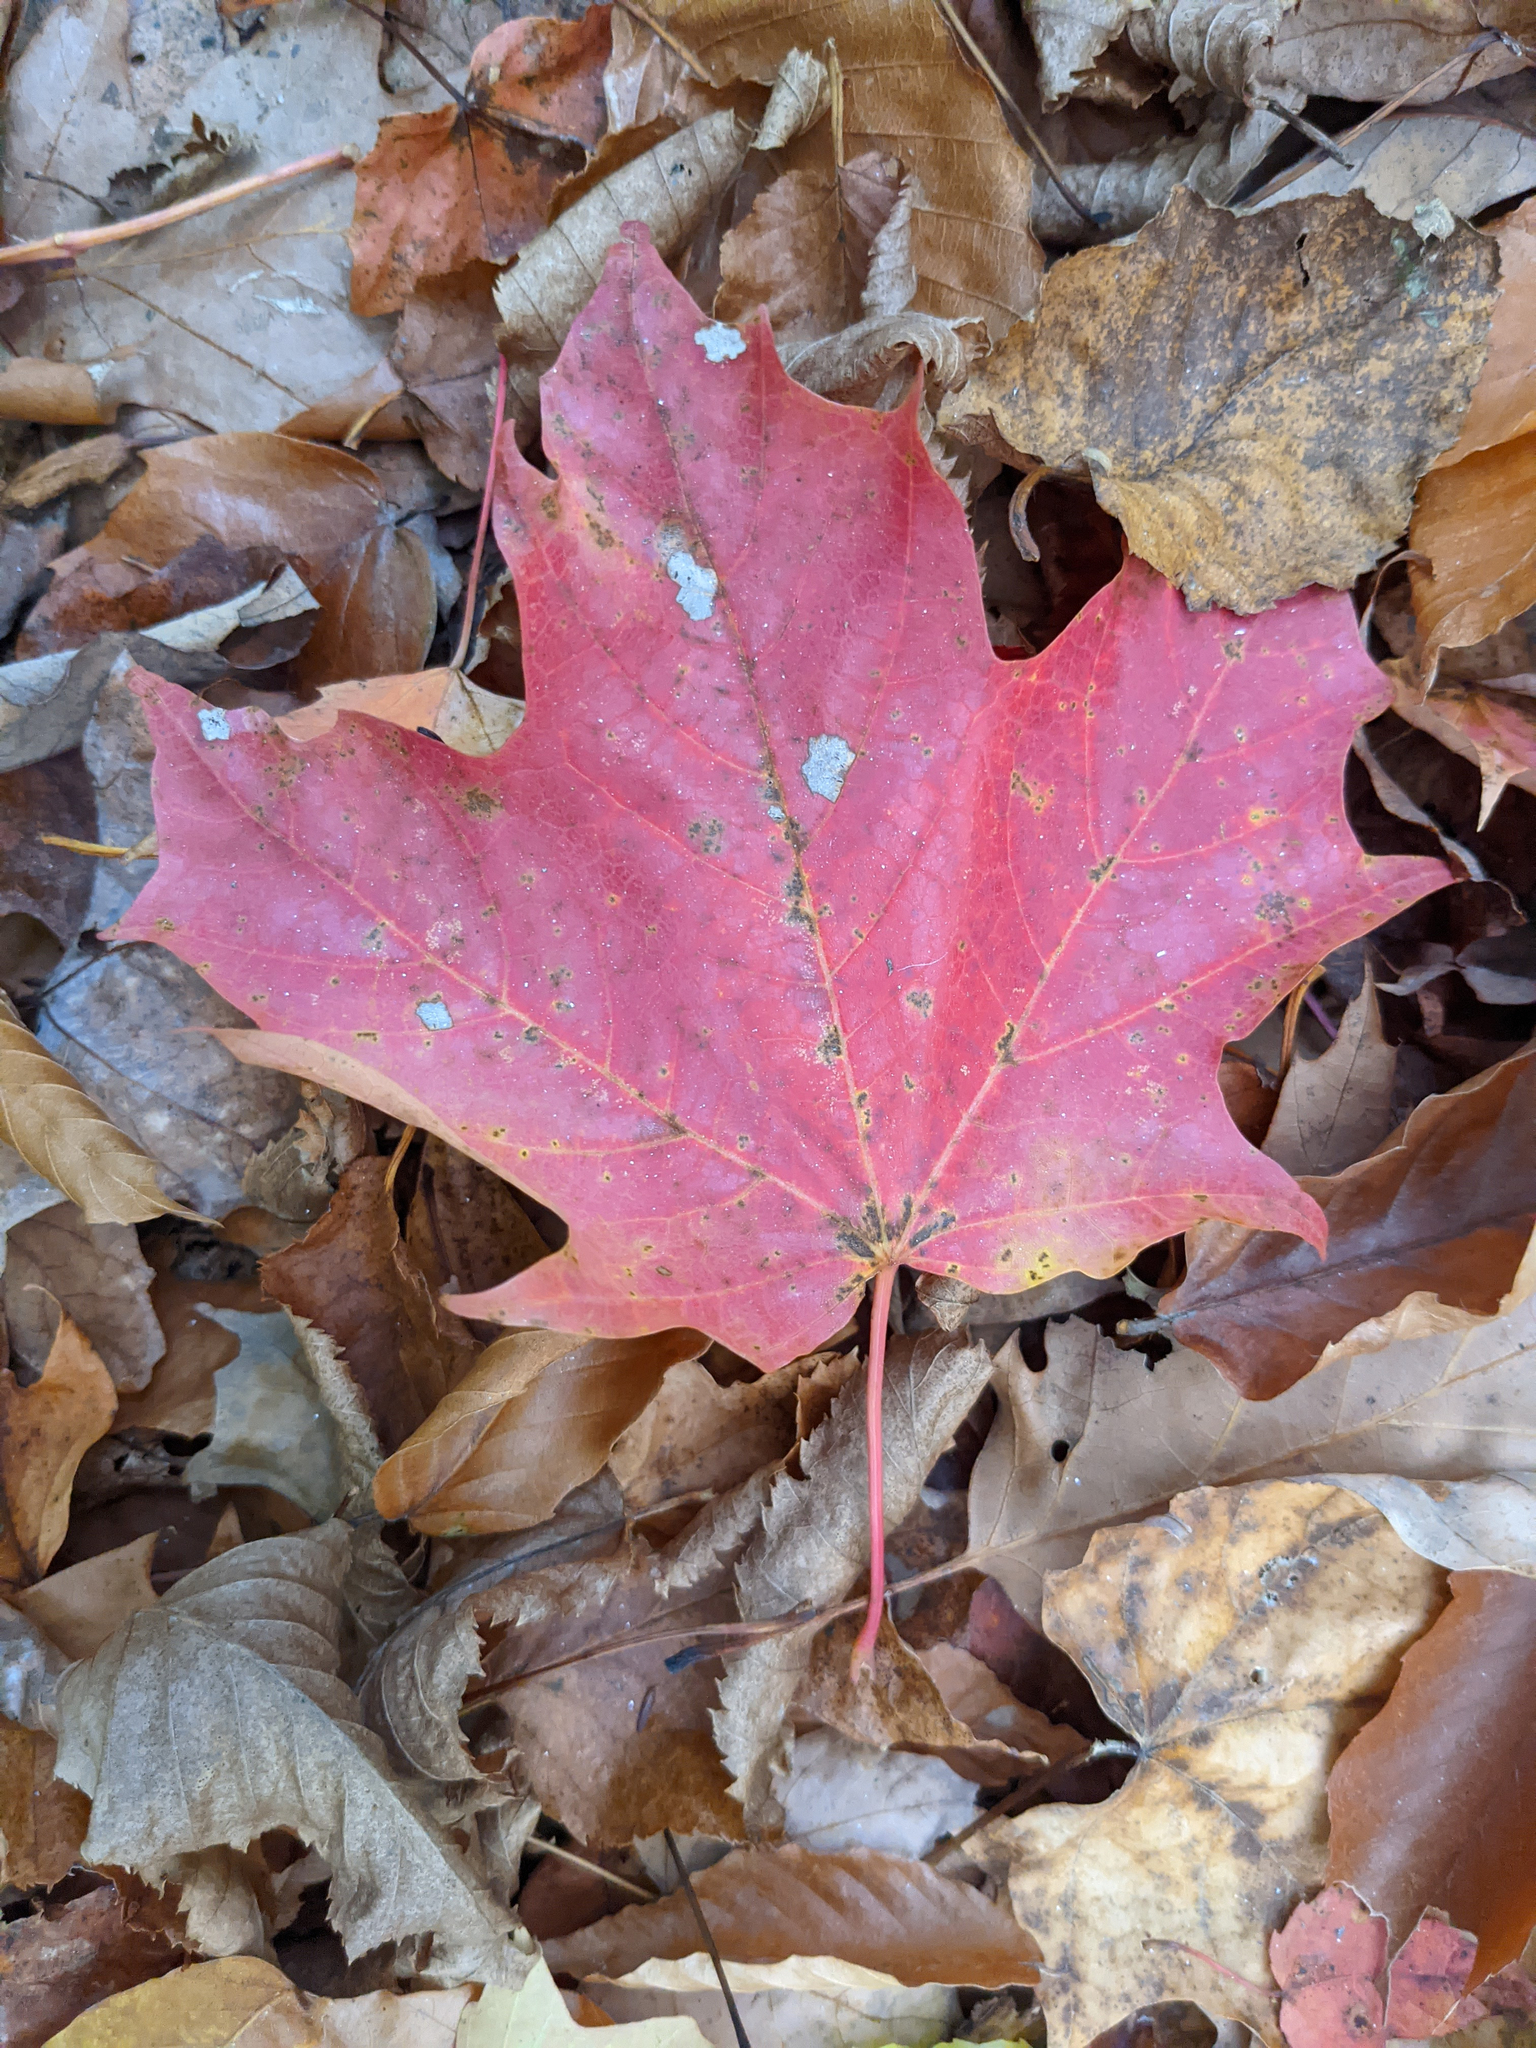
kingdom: Plantae
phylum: Tracheophyta
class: Magnoliopsida
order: Sapindales
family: Sapindaceae
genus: Acer
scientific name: Acer saccharum
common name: Sugar maple
